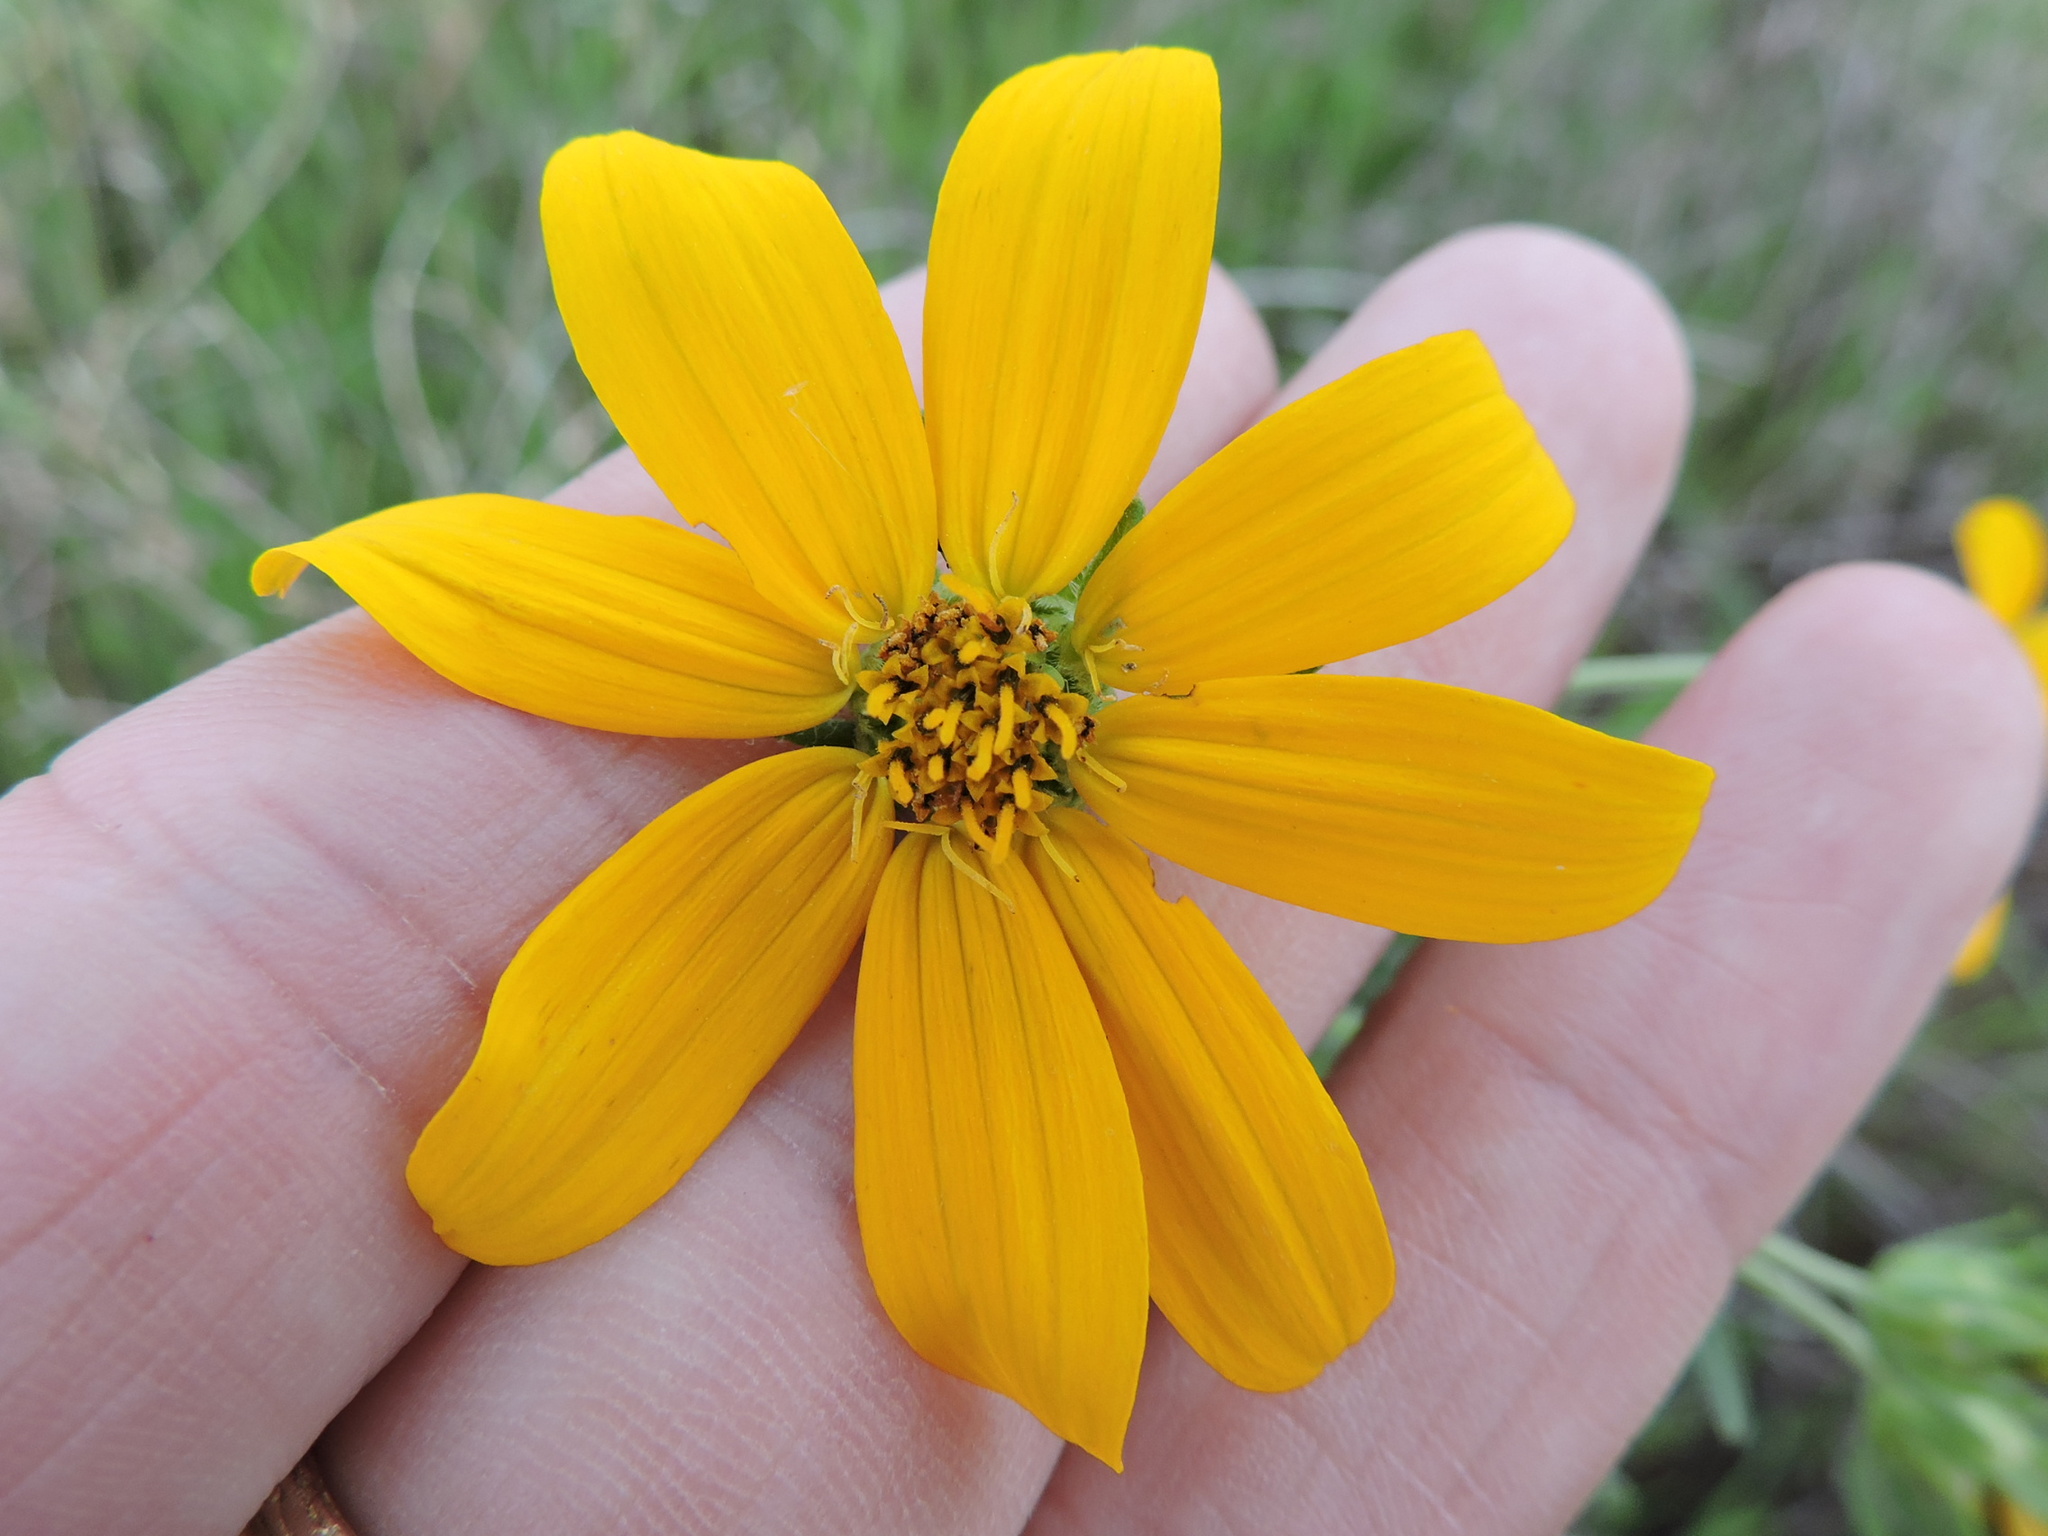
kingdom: Plantae
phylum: Tracheophyta
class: Magnoliopsida
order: Asterales
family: Asteraceae
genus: Engelmannia
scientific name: Engelmannia peristenia
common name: Engelmann's daisy
